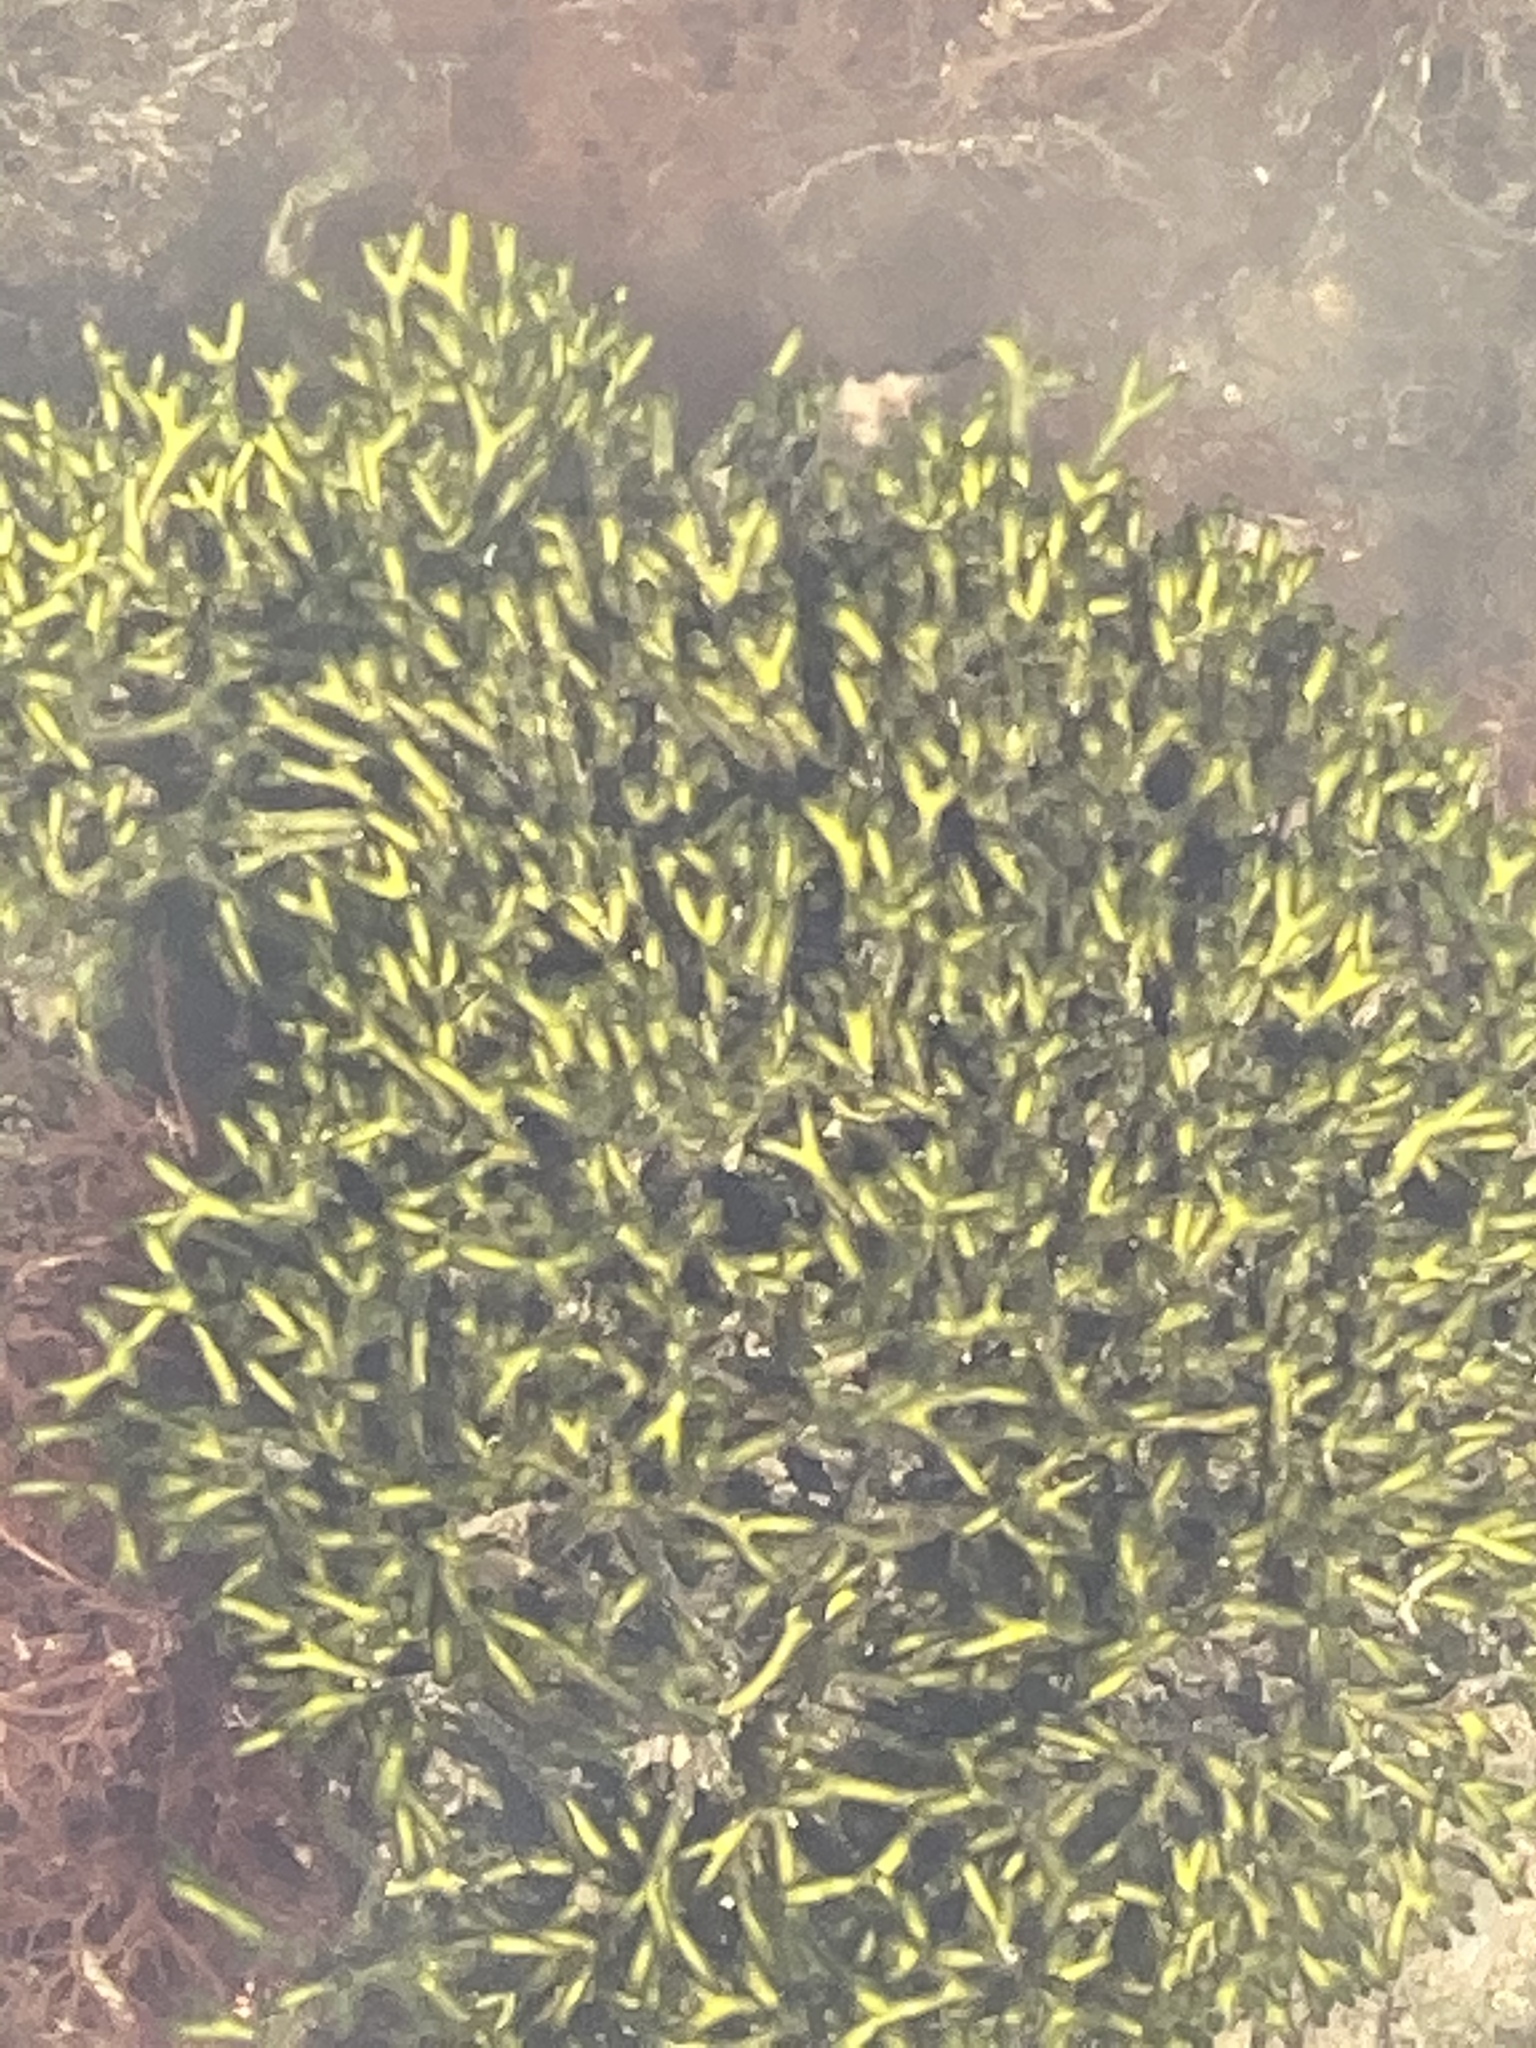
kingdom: Plantae
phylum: Chlorophyta
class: Ulvophyceae
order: Bryopsidales
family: Codiaceae
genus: Codium
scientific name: Codium fragile
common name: Dead man's fingers
